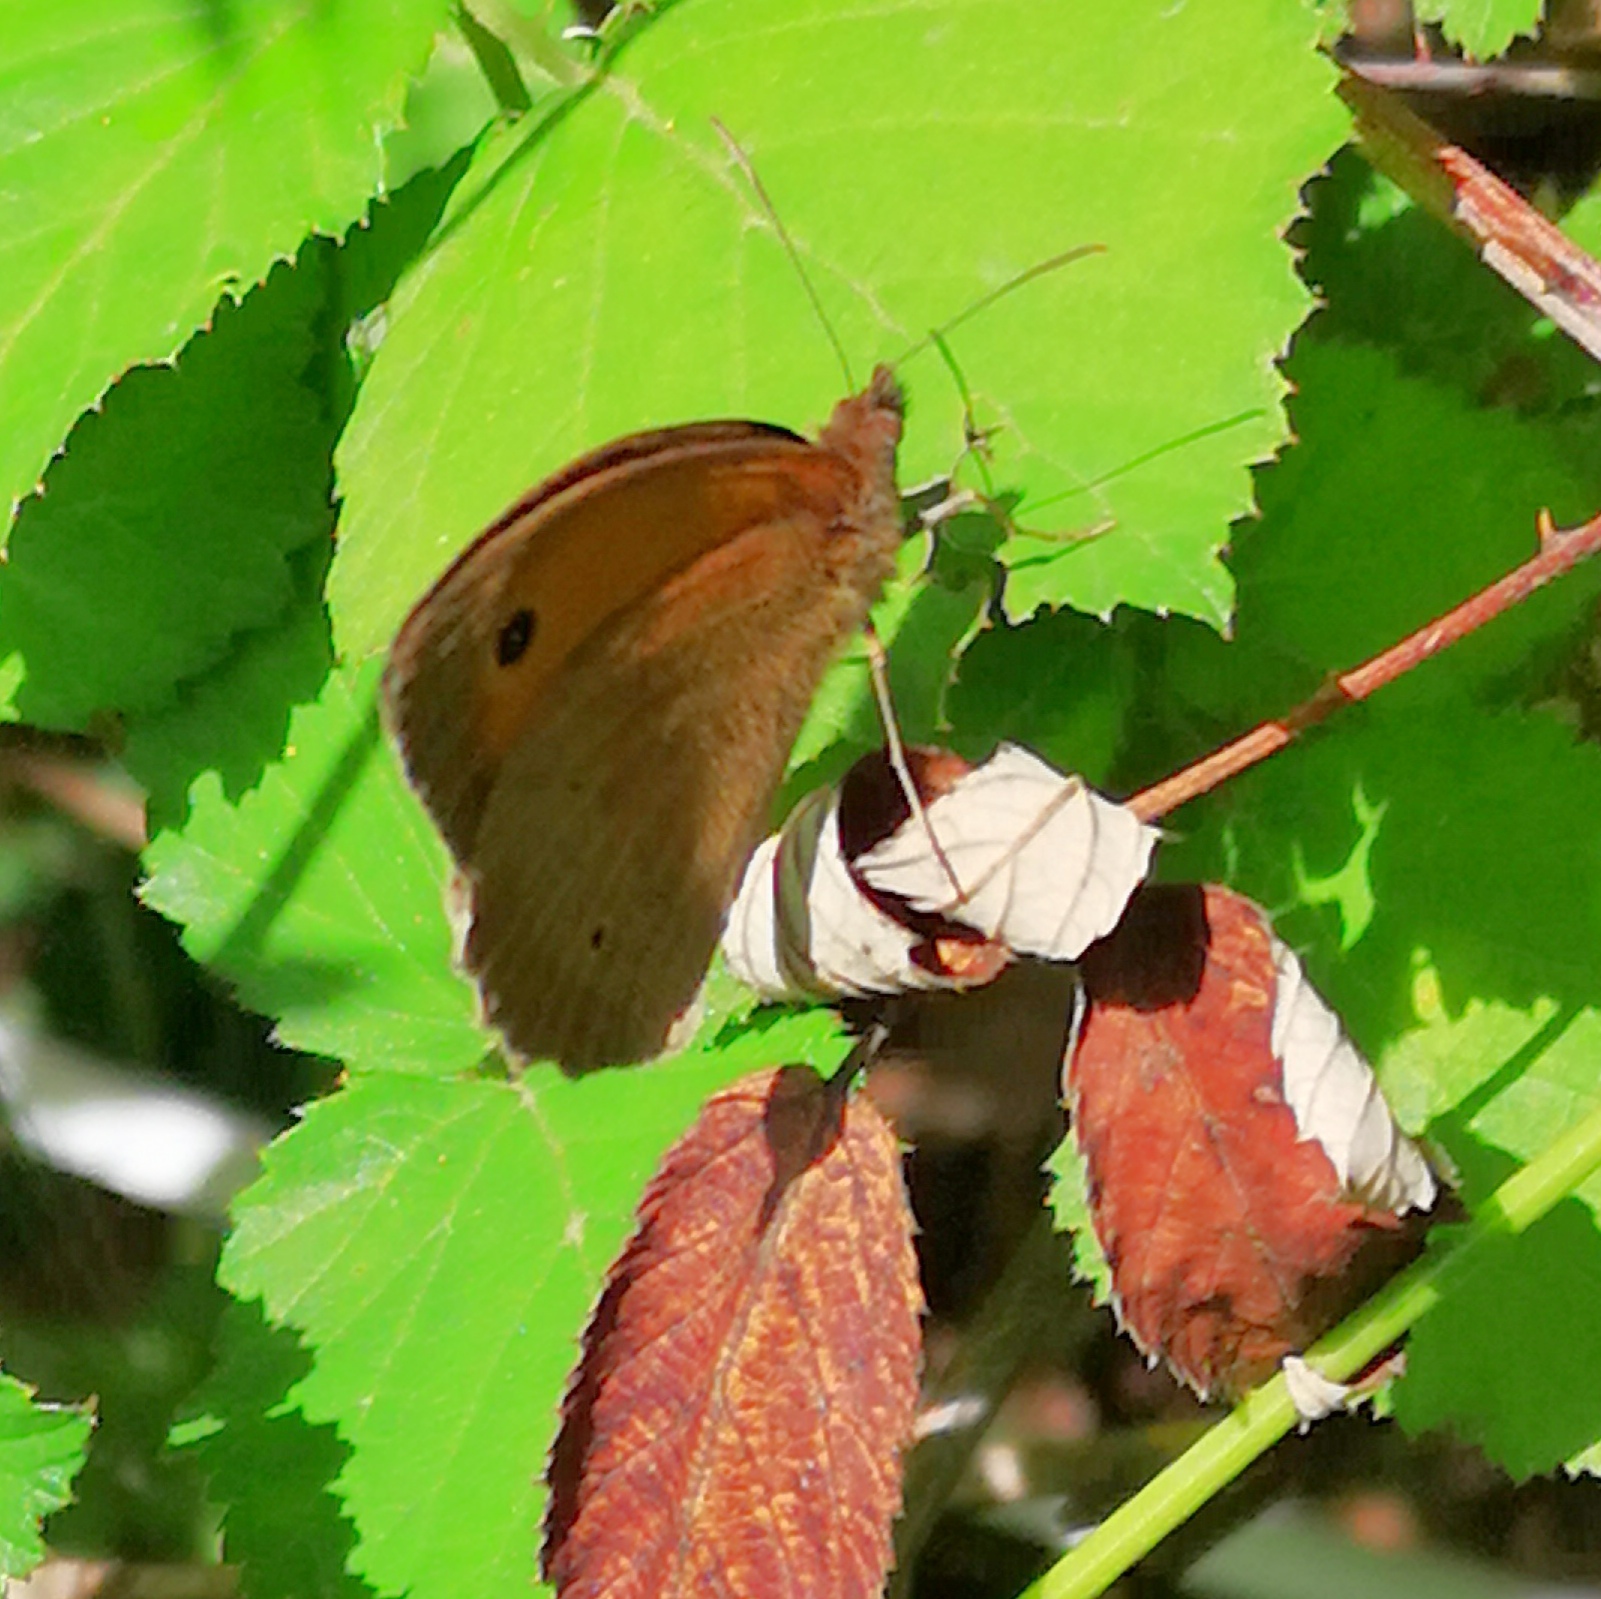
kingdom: Animalia
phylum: Arthropoda
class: Insecta
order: Lepidoptera
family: Nymphalidae
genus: Maniola
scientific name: Maniola jurtina
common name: Meadow brown
